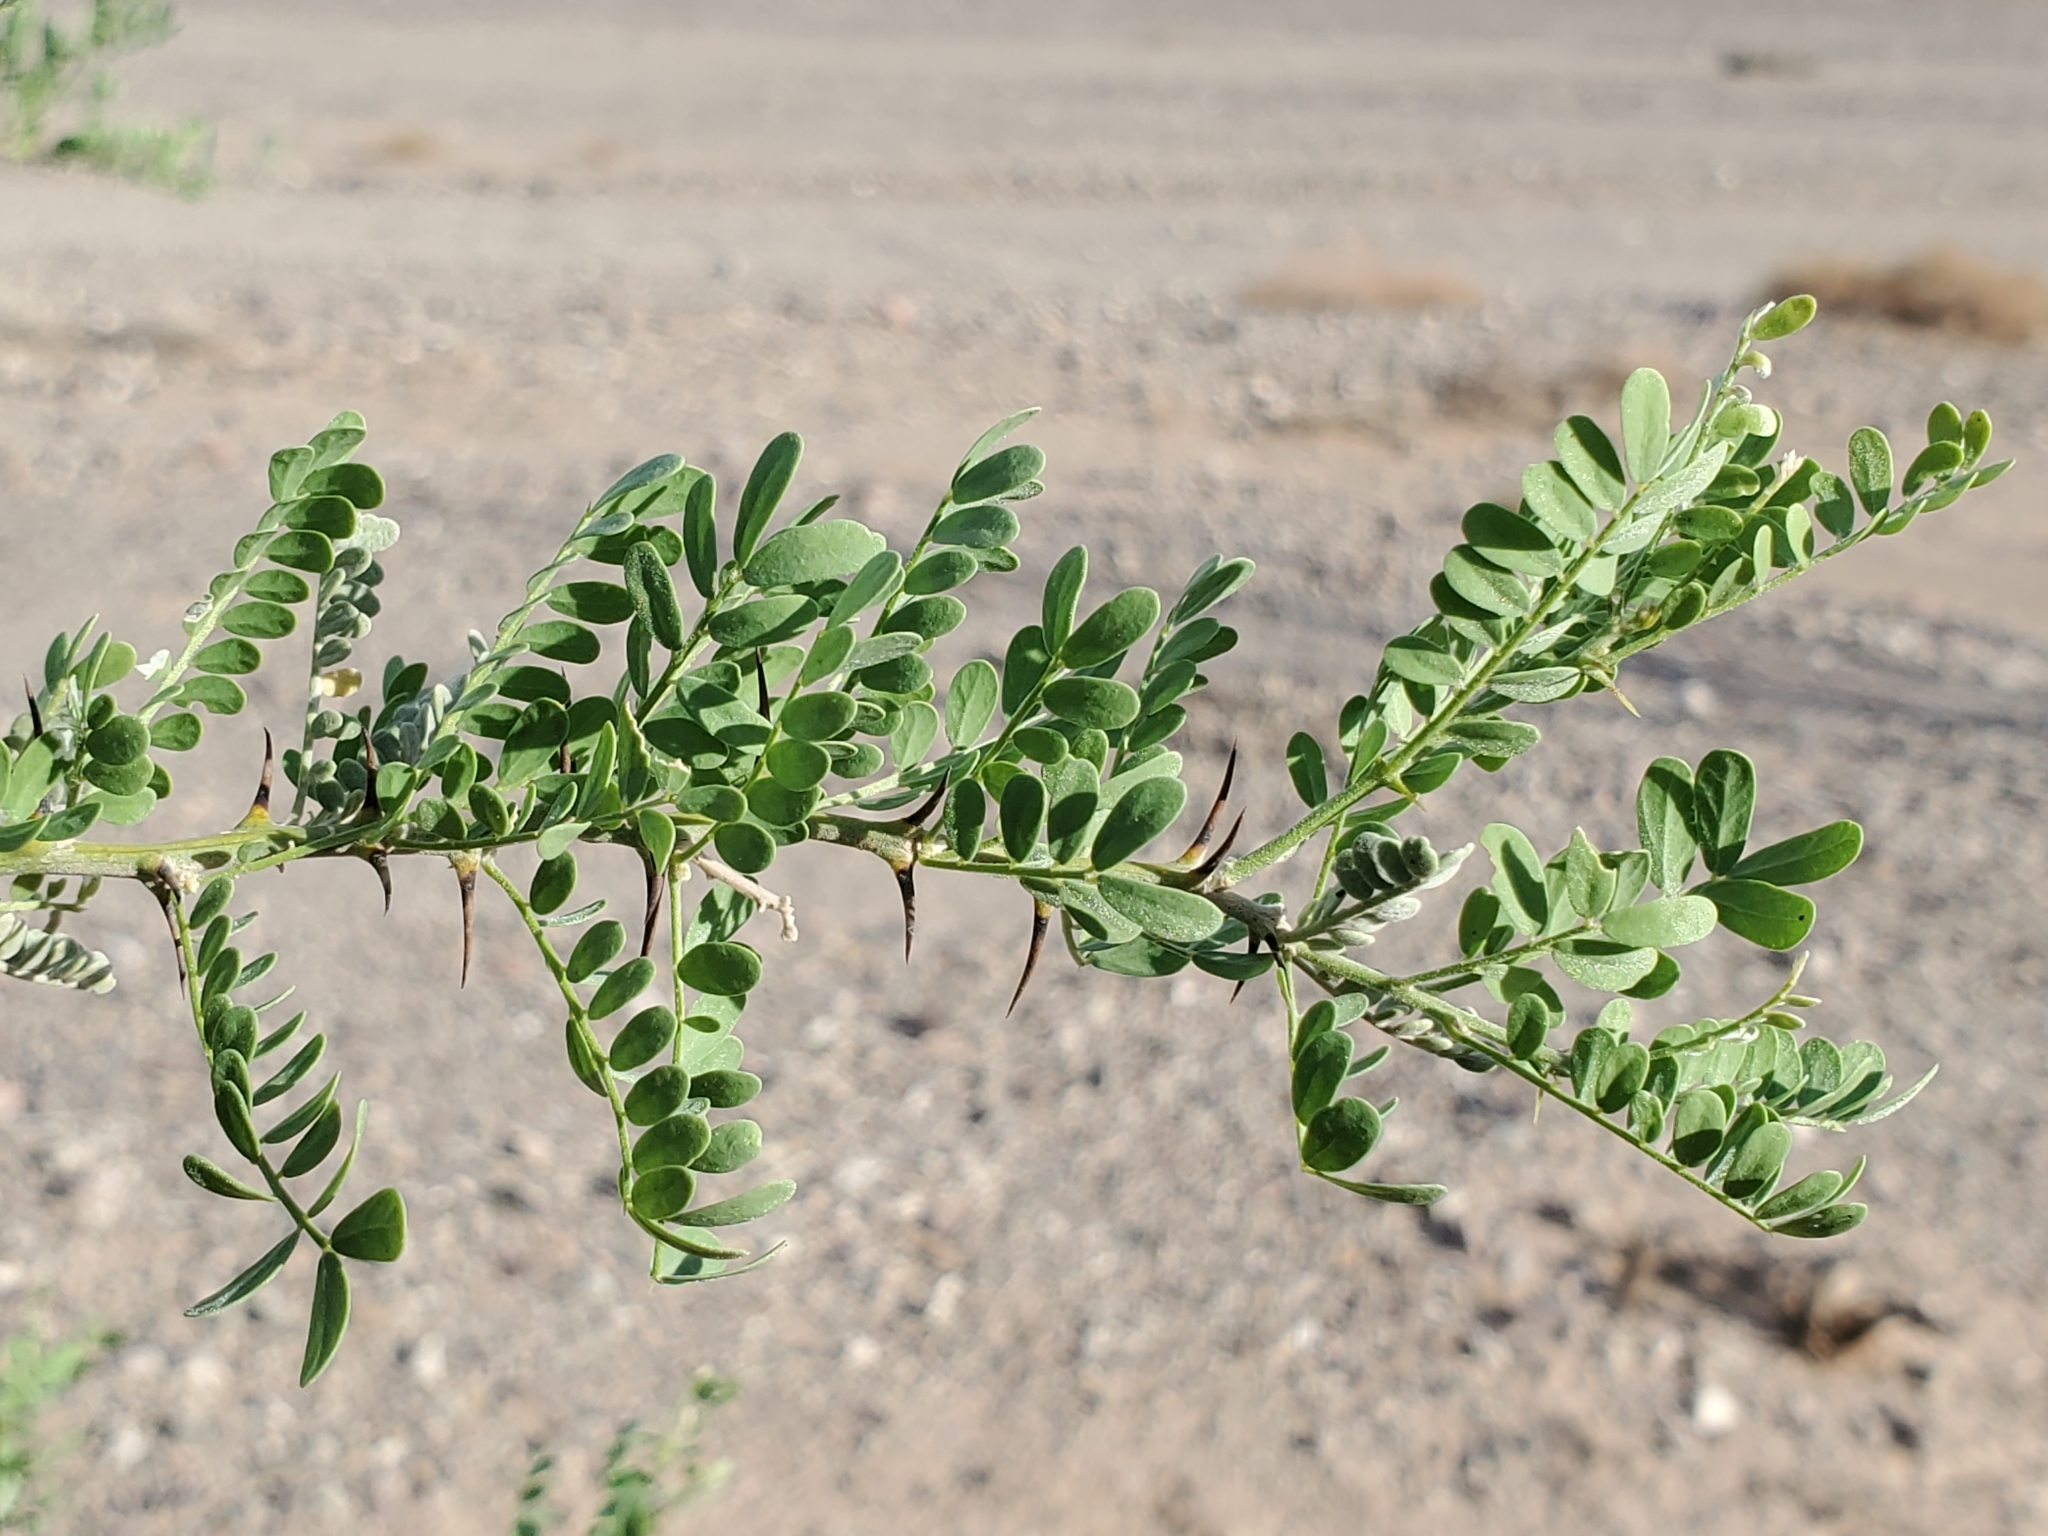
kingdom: Plantae
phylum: Tracheophyta
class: Magnoliopsida
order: Fabales
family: Fabaceae
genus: Olneya
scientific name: Olneya tesota
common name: Desert ironwood
